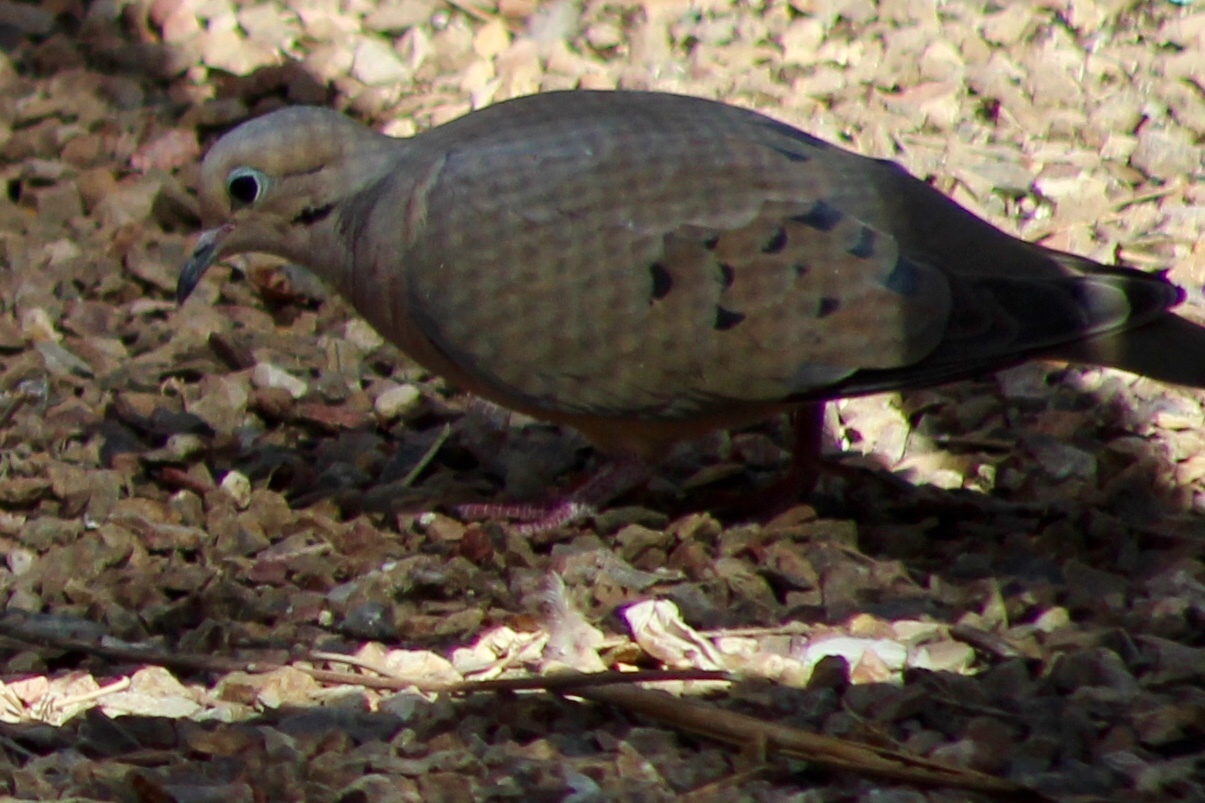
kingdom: Animalia
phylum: Chordata
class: Aves
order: Columbiformes
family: Columbidae
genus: Zenaida
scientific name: Zenaida macroura
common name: Mourning dove
